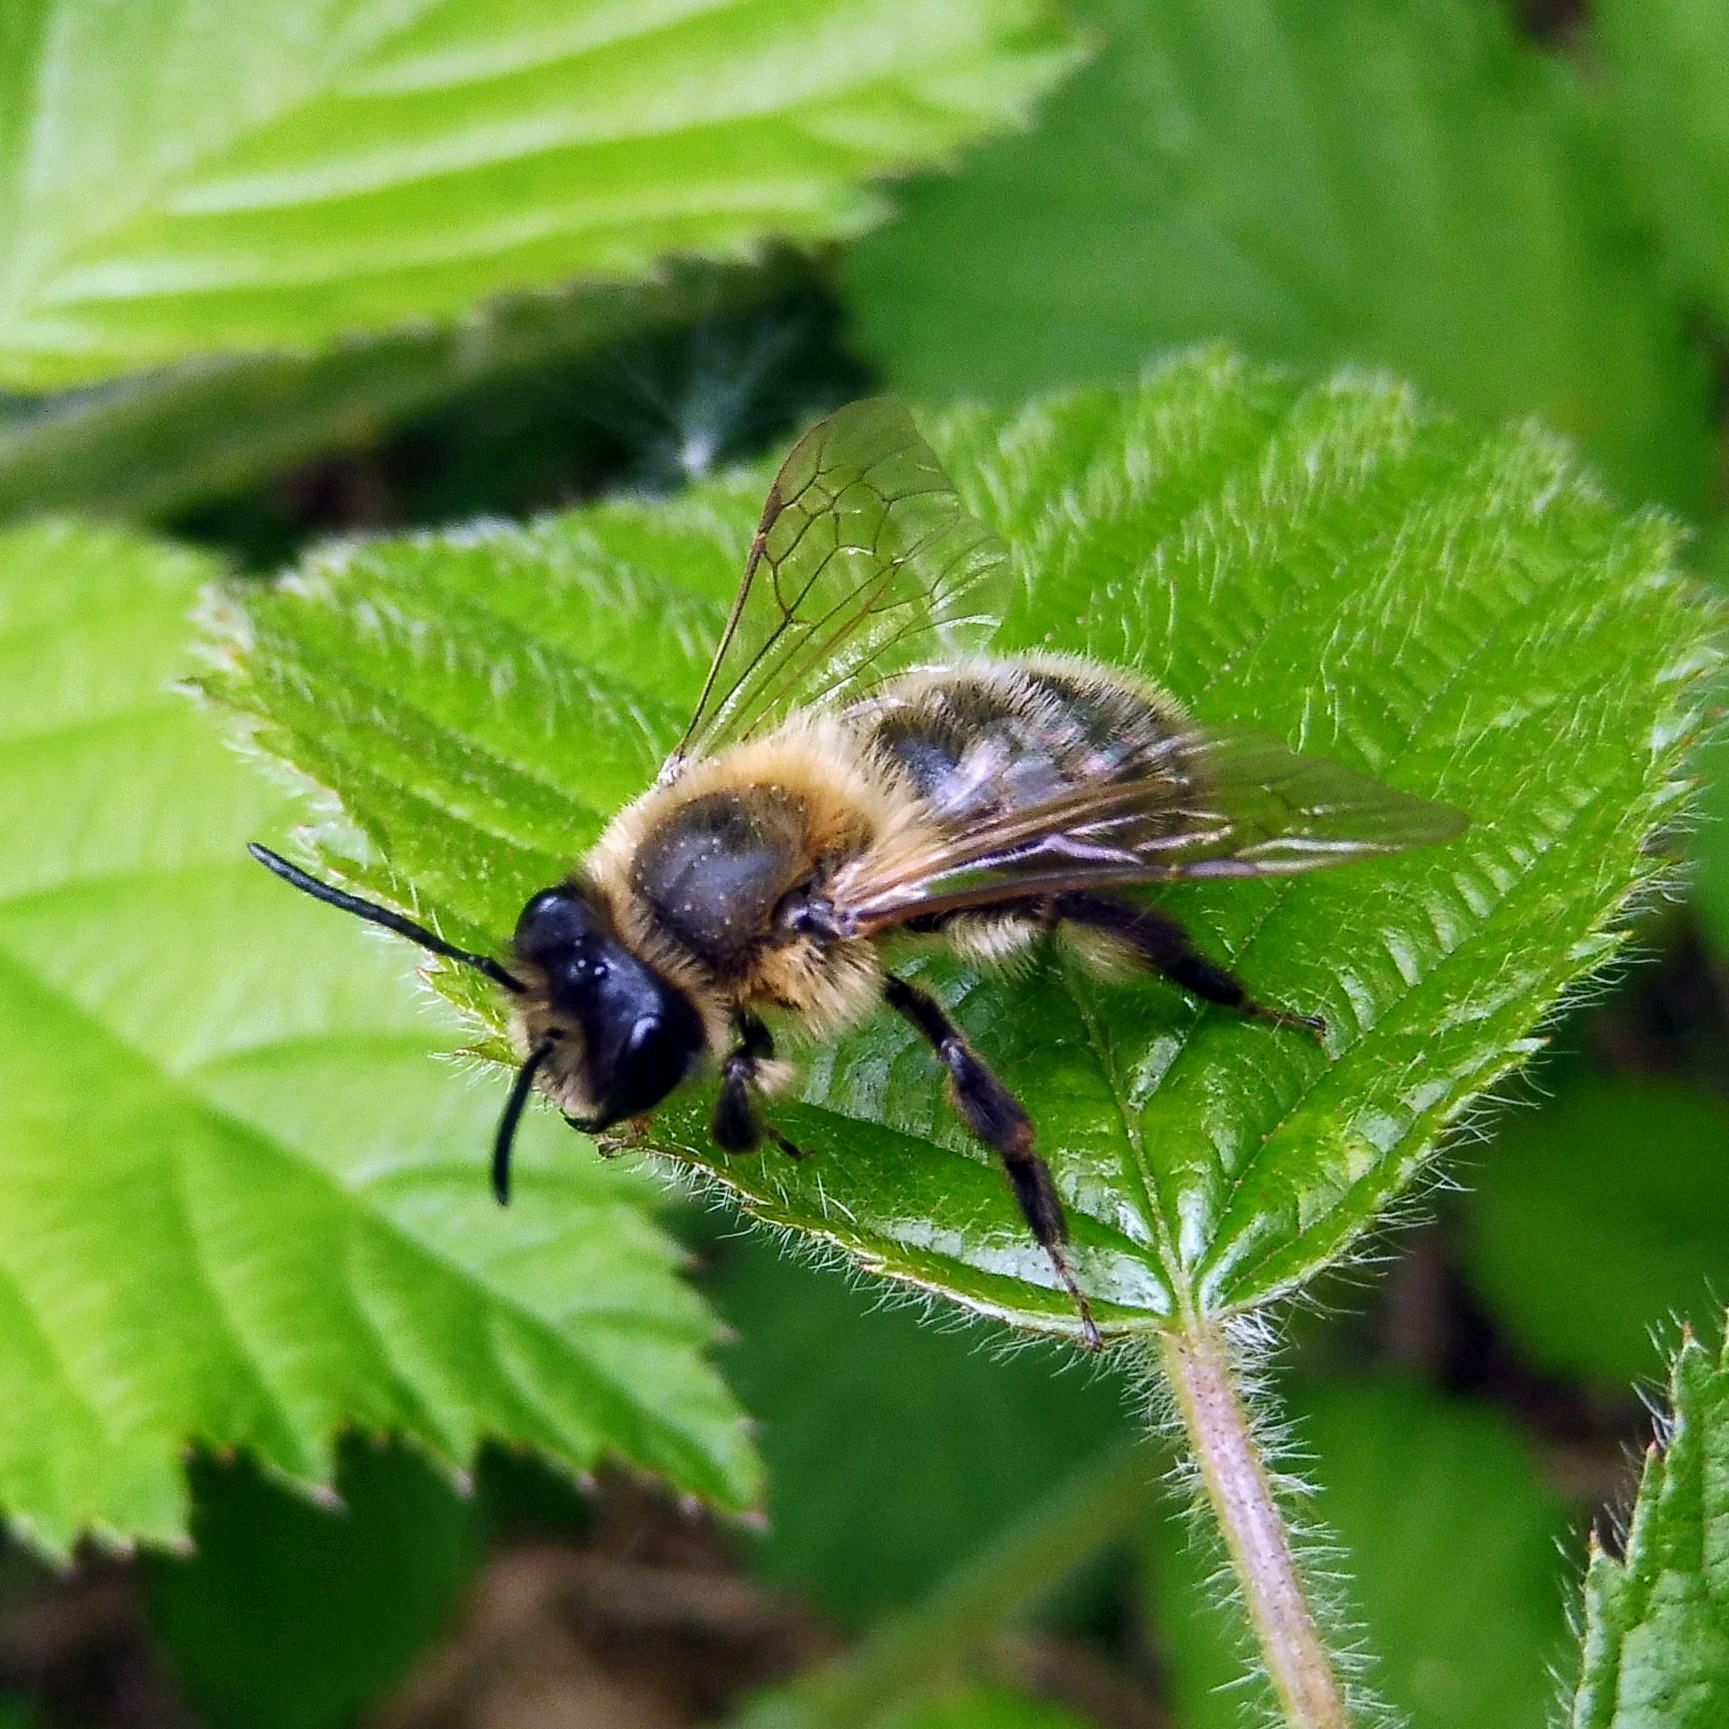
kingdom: Animalia
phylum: Arthropoda
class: Insecta
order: Hymenoptera
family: Andrenidae
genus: Andrena
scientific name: Andrena carantonica
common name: Chocolate mining bee
